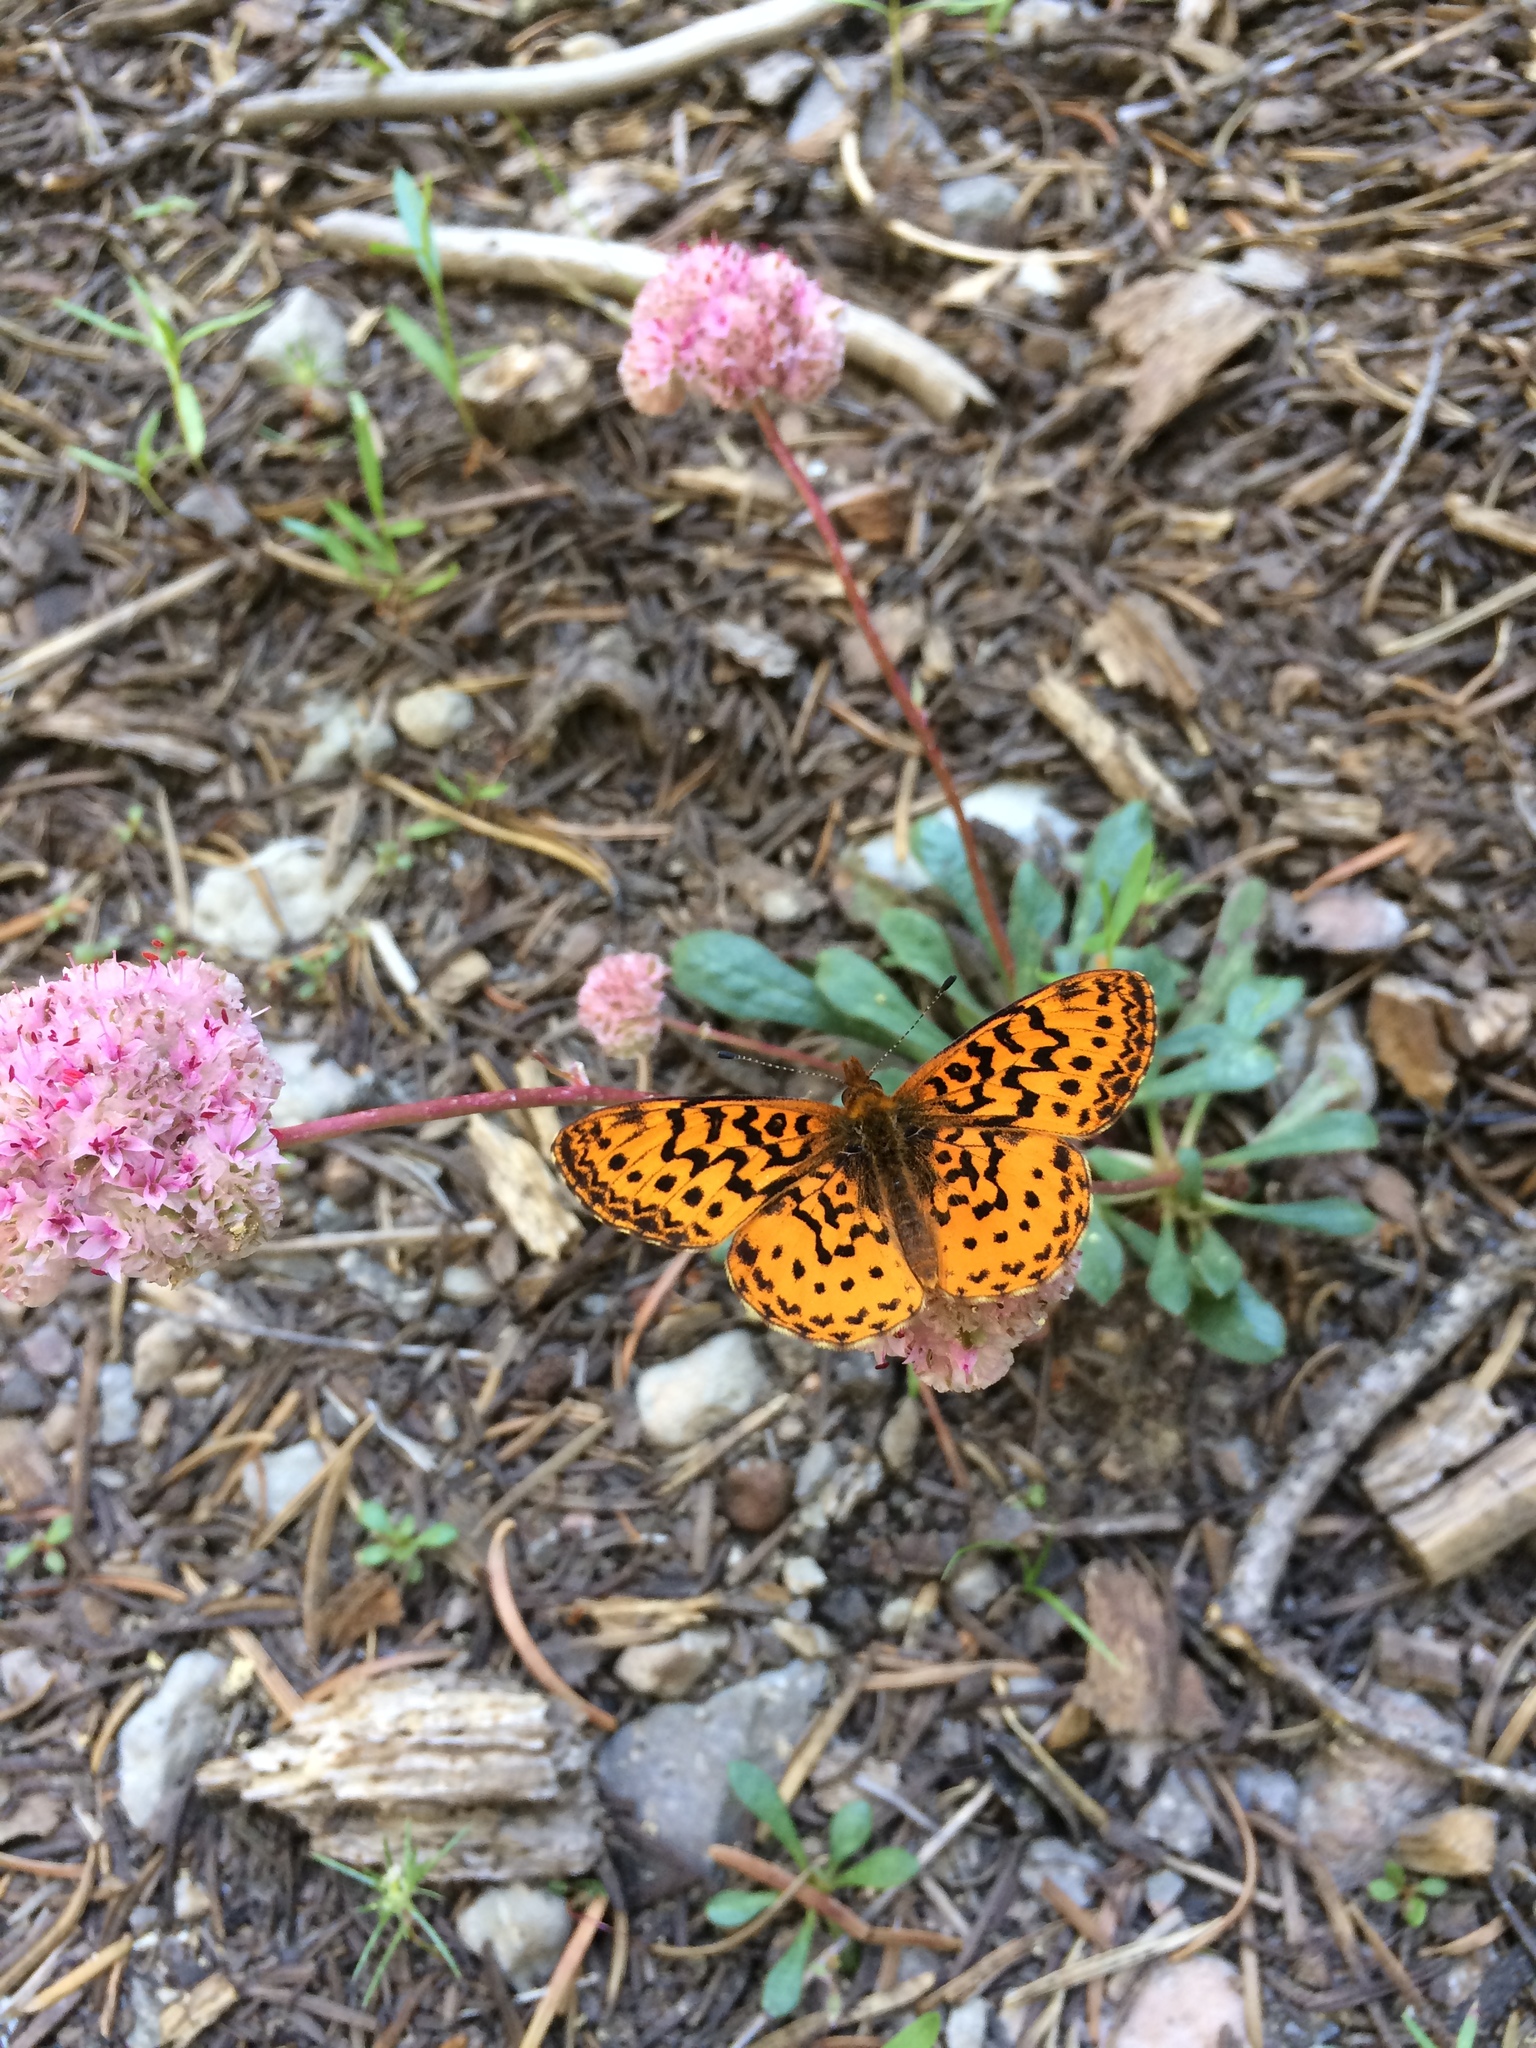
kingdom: Animalia
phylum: Arthropoda
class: Insecta
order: Lepidoptera
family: Nymphalidae
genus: Boloria
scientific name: Boloria epithore
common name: Pacific fritillary
